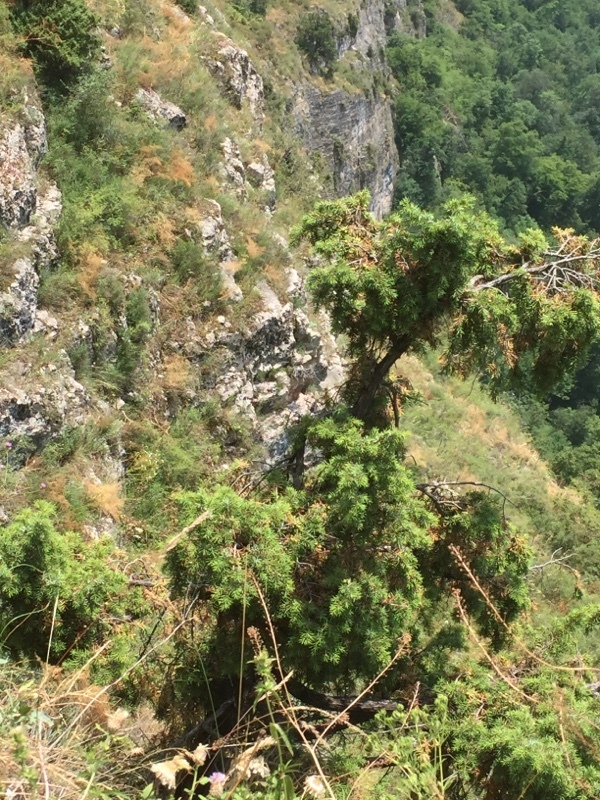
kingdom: Plantae
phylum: Tracheophyta
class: Pinopsida
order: Pinales
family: Cupressaceae
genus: Juniperus
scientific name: Juniperus communis
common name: Common juniper
